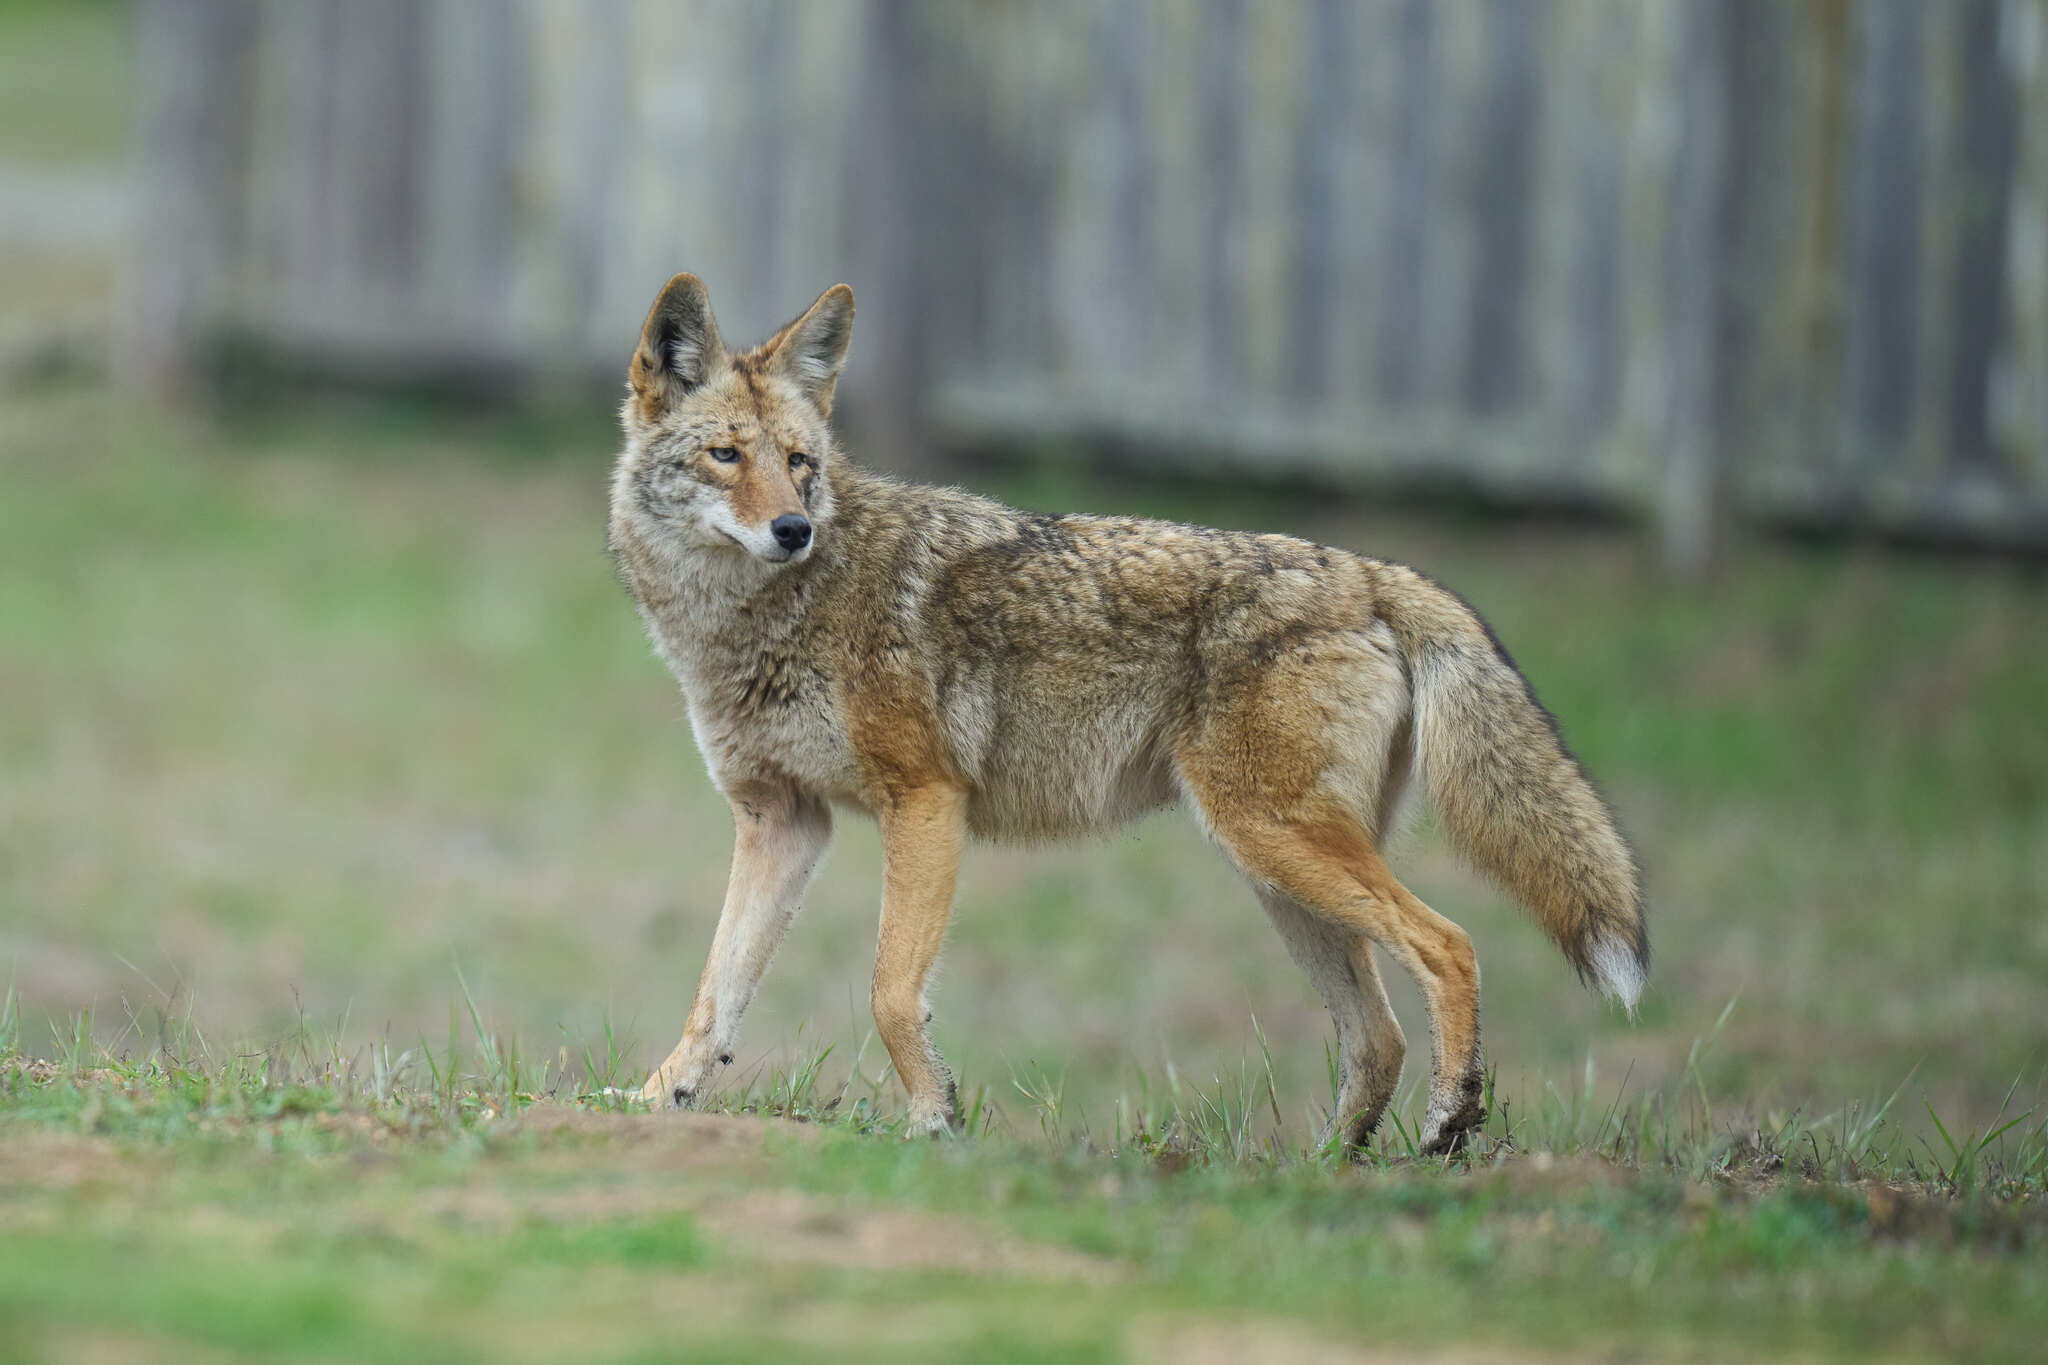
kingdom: Animalia
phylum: Chordata
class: Mammalia
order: Carnivora
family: Canidae
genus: Canis
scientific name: Canis latrans
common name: Coyote
